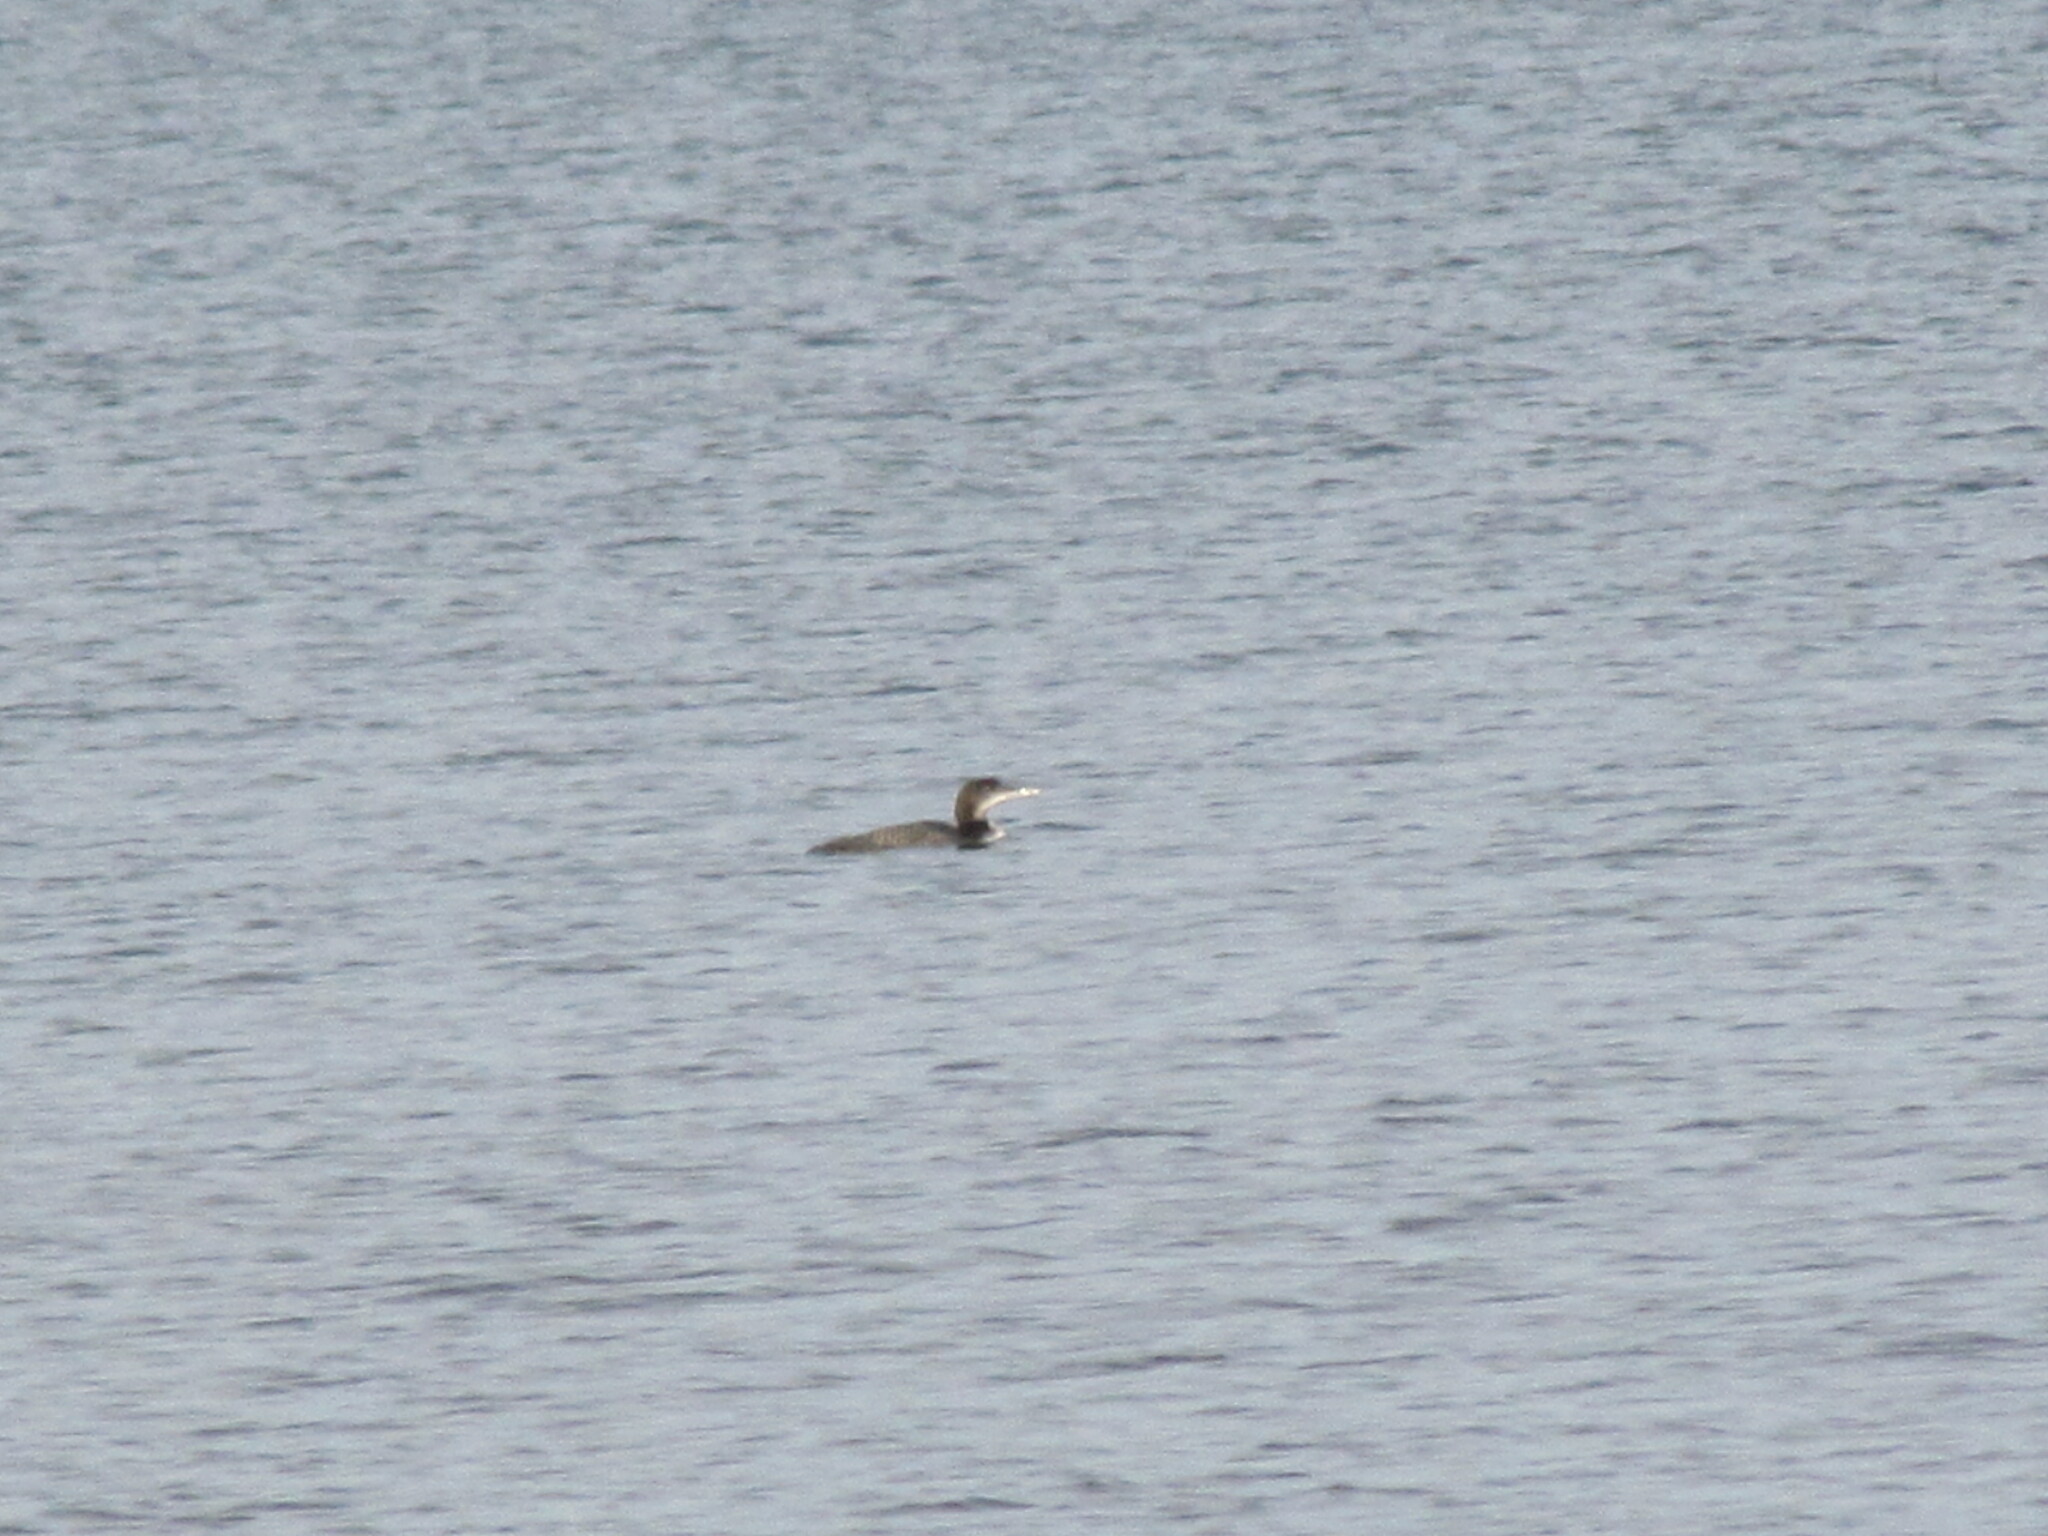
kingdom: Animalia
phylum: Chordata
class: Aves
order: Gaviiformes
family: Gaviidae
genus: Gavia
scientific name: Gavia immer
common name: Common loon
